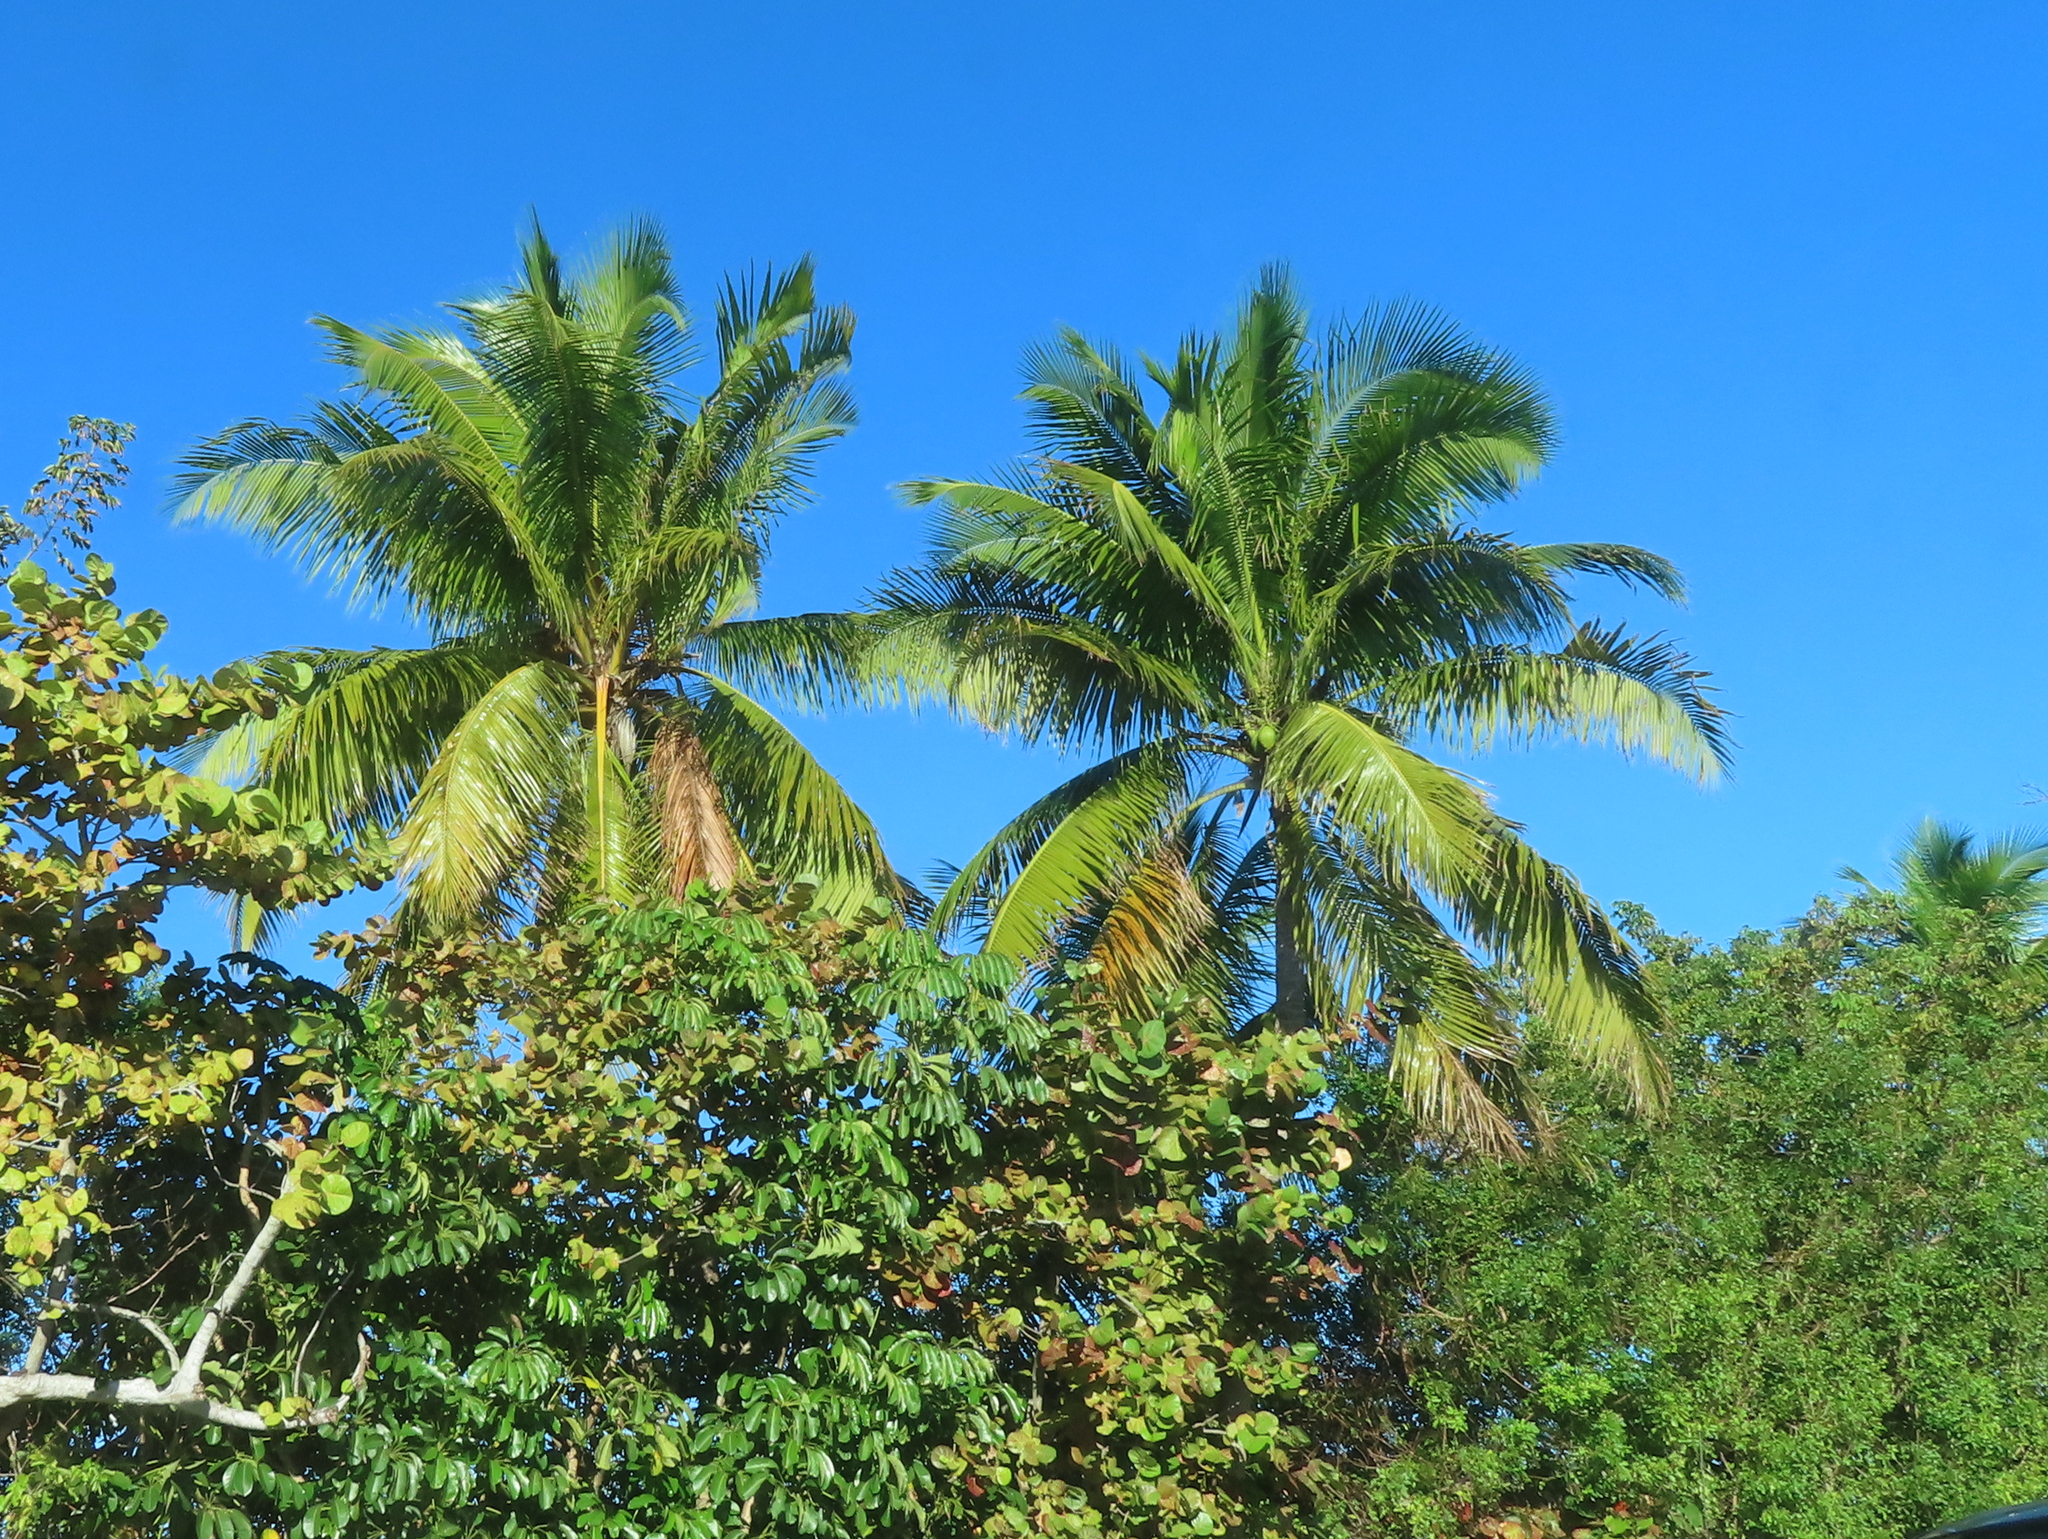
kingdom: Plantae
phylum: Tracheophyta
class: Liliopsida
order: Arecales
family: Arecaceae
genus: Cocos
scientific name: Cocos nucifera
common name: Coconut palm
